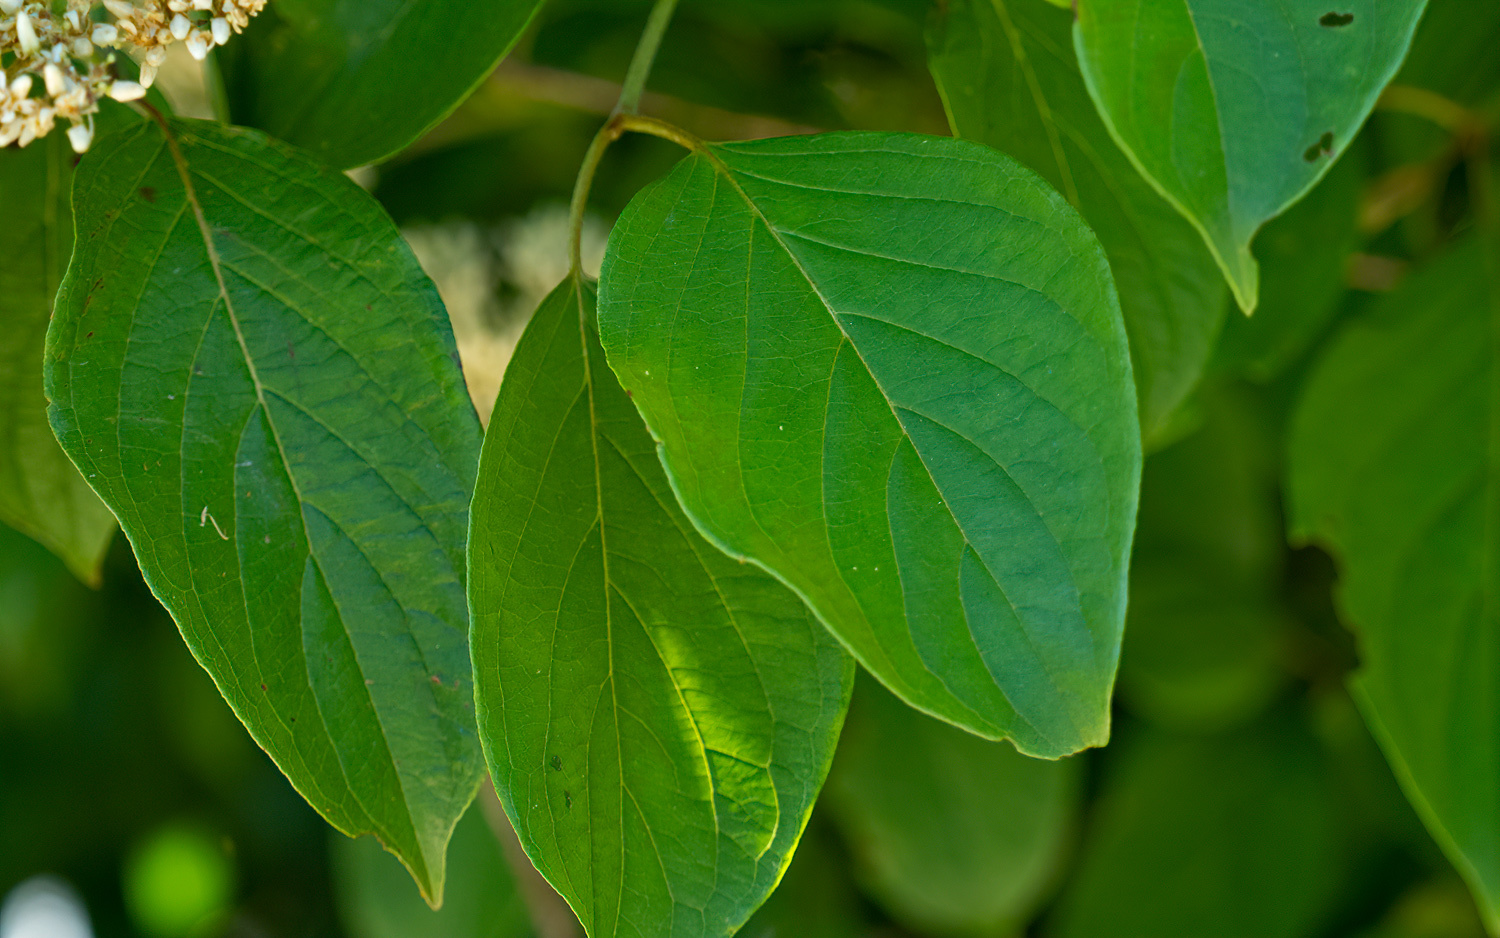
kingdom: Plantae
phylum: Tracheophyta
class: Magnoliopsida
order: Cornales
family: Cornaceae
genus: Cornus
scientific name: Cornus amomum
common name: Silky dogwood
